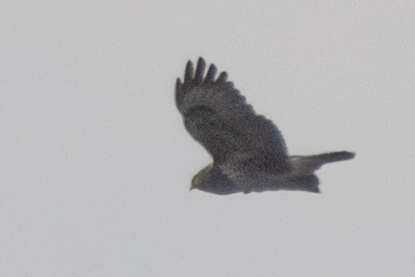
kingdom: Animalia
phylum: Chordata
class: Aves
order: Accipitriformes
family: Accipitridae
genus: Buteo
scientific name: Buteo buteo
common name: Common buzzard
